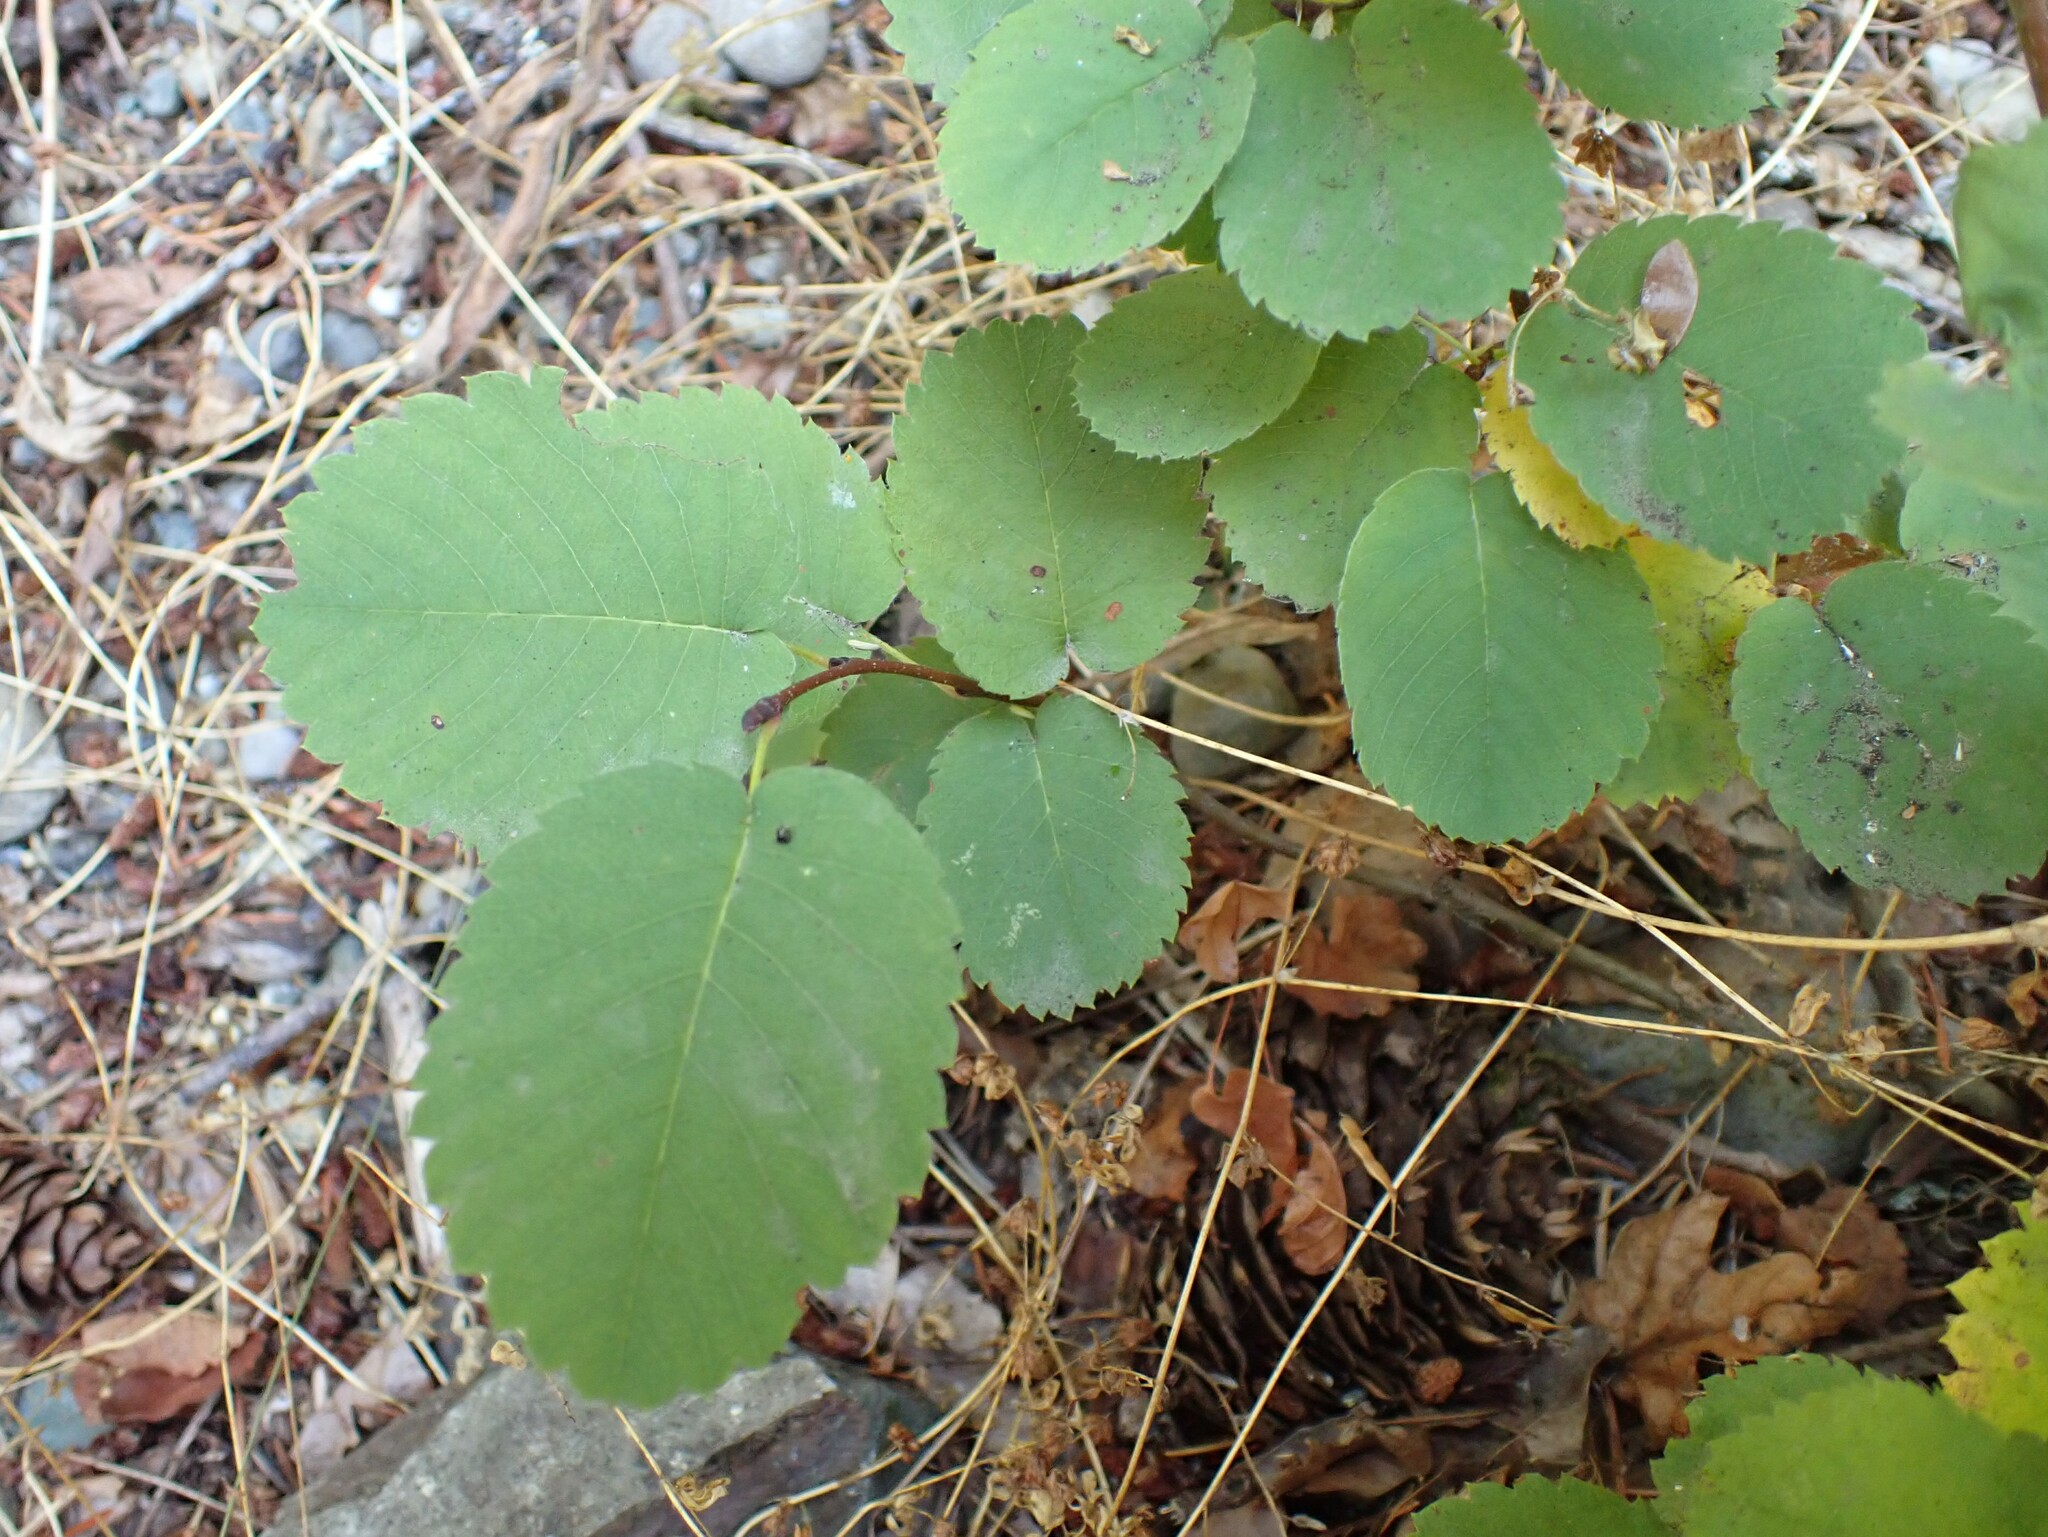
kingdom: Plantae
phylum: Tracheophyta
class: Magnoliopsida
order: Rosales
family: Rosaceae
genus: Amelanchier
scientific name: Amelanchier alnifolia
